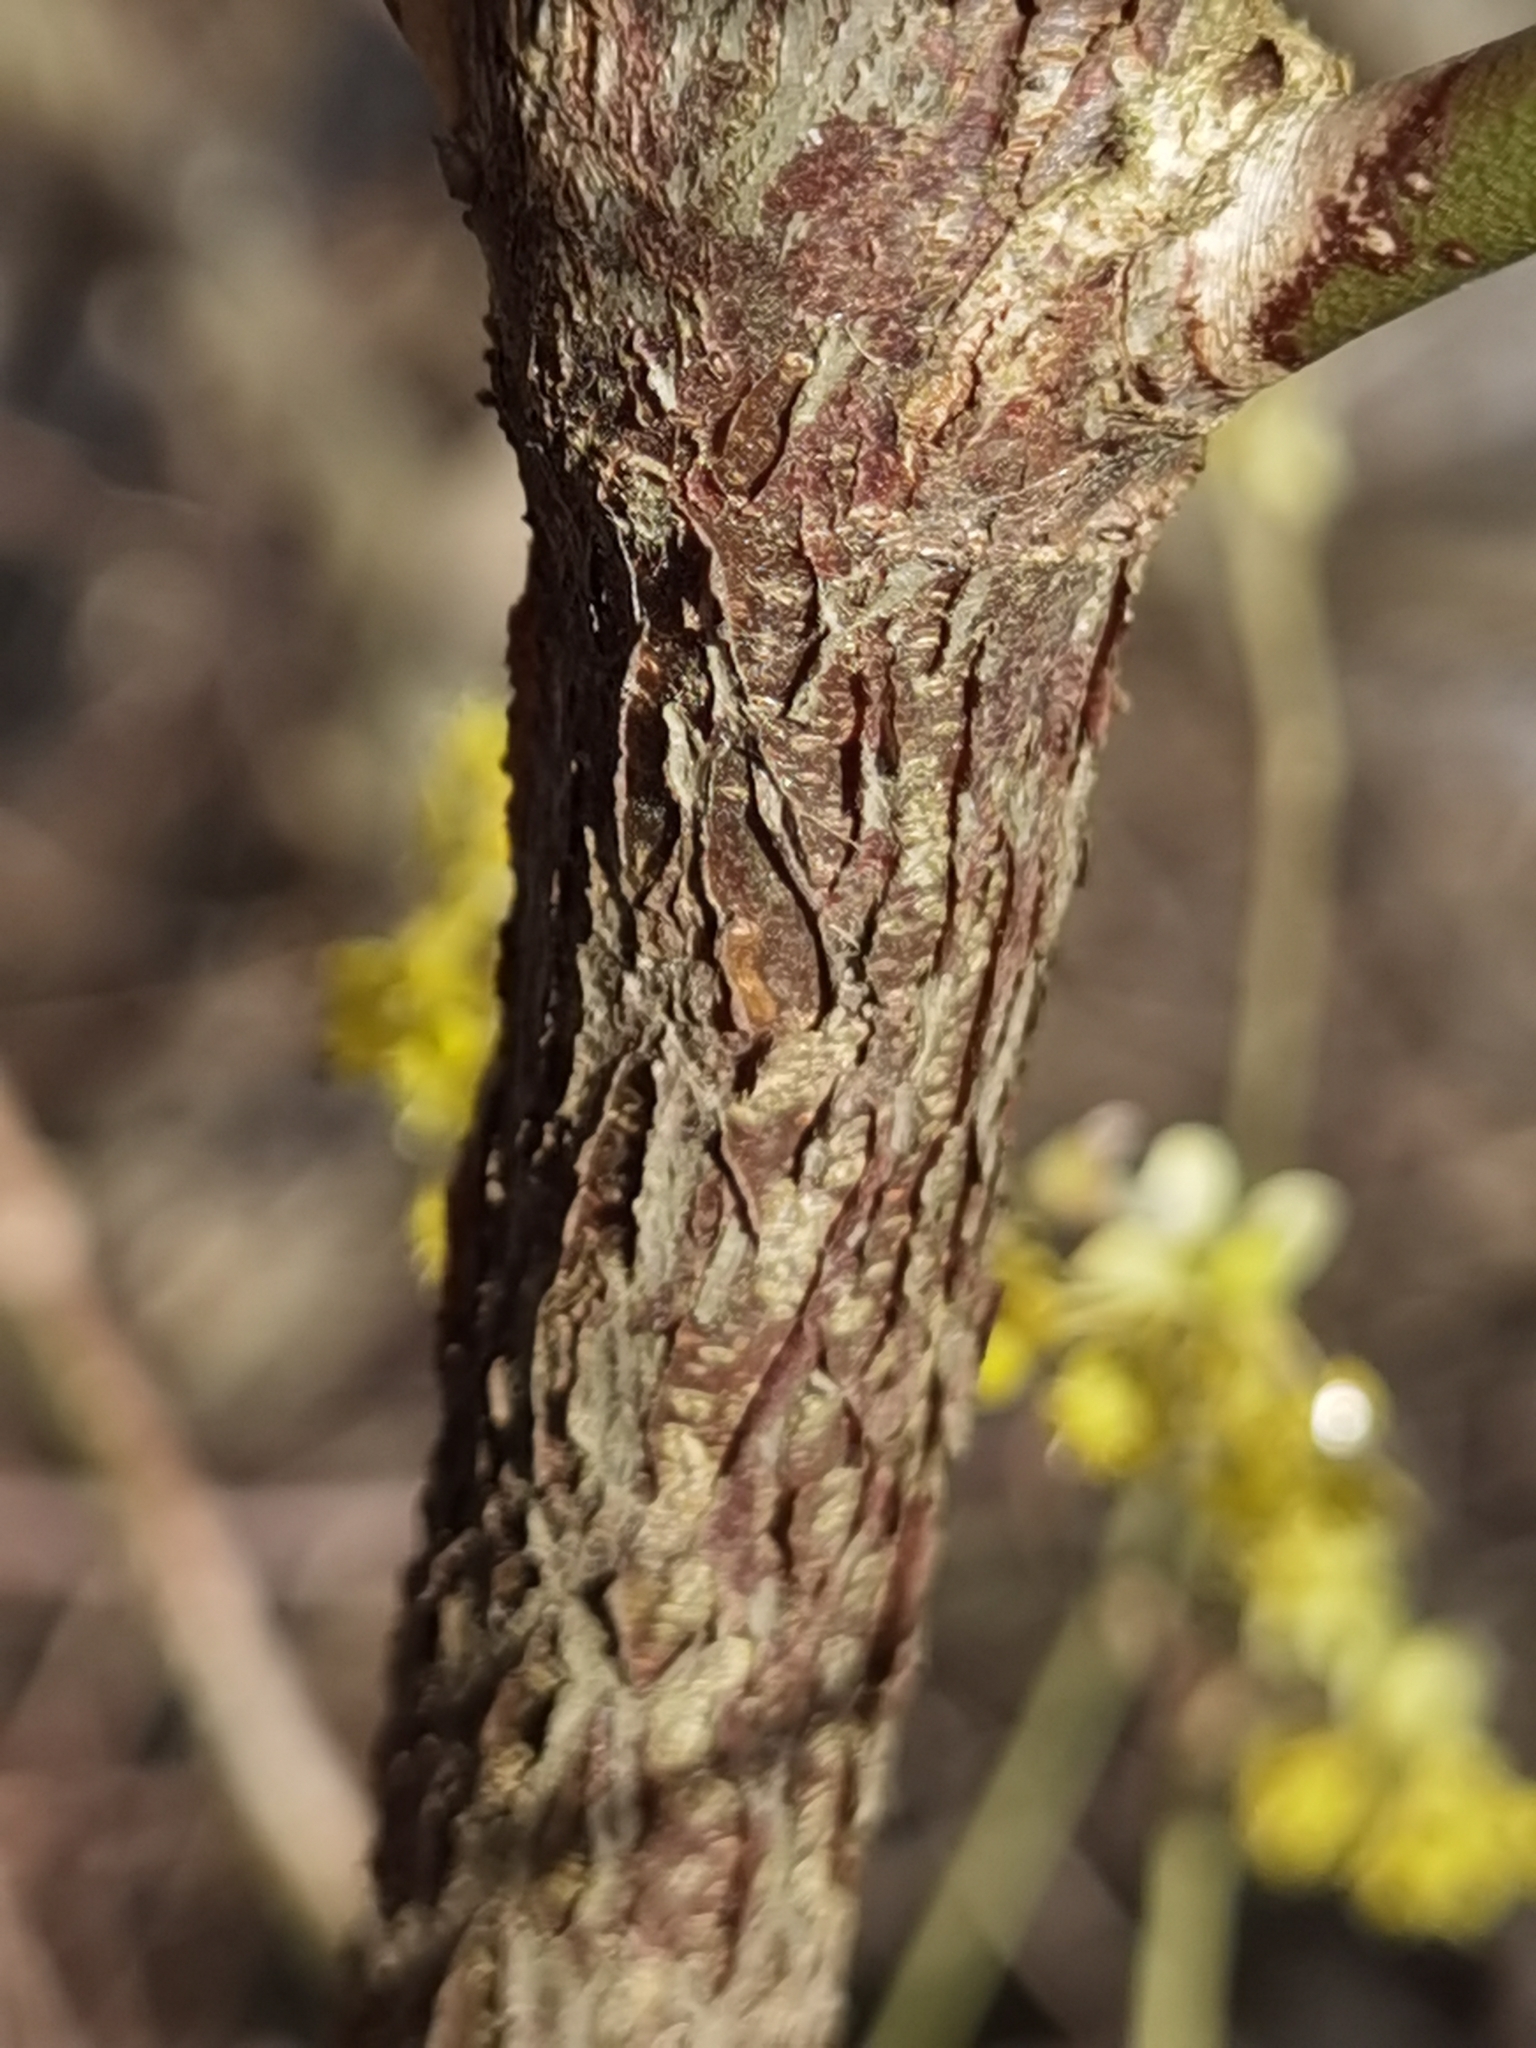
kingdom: Plantae
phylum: Tracheophyta
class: Magnoliopsida
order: Cornales
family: Cornaceae
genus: Cornus
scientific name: Cornus mas
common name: Cornelian-cherry
